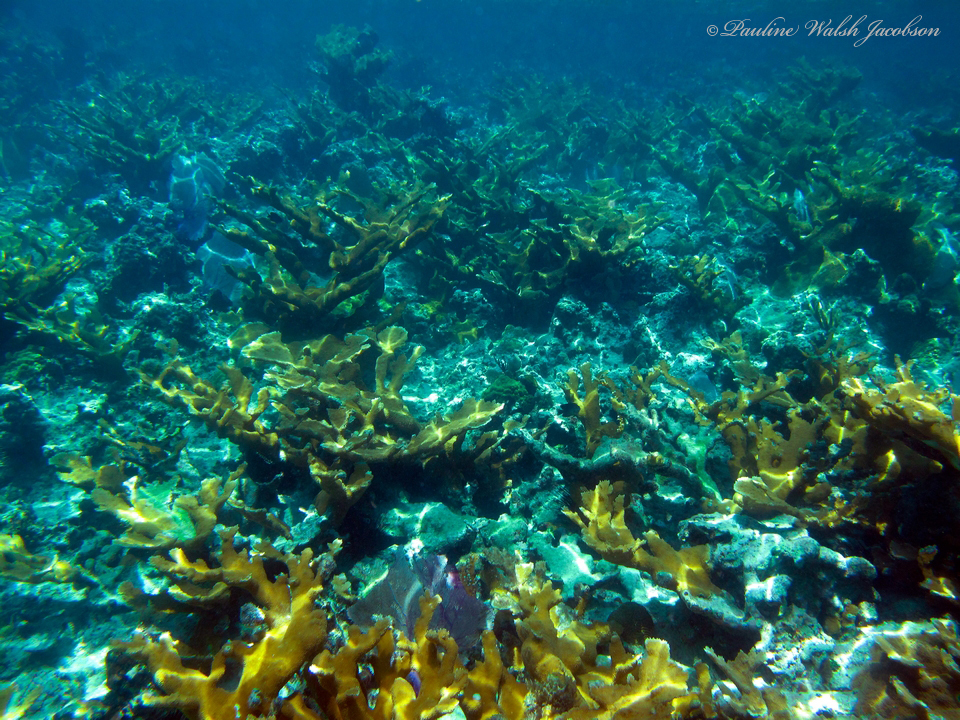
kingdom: Animalia
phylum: Cnidaria
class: Anthozoa
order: Scleractinia
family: Acroporidae
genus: Acropora
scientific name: Acropora palmata
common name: Elkhorn coral
